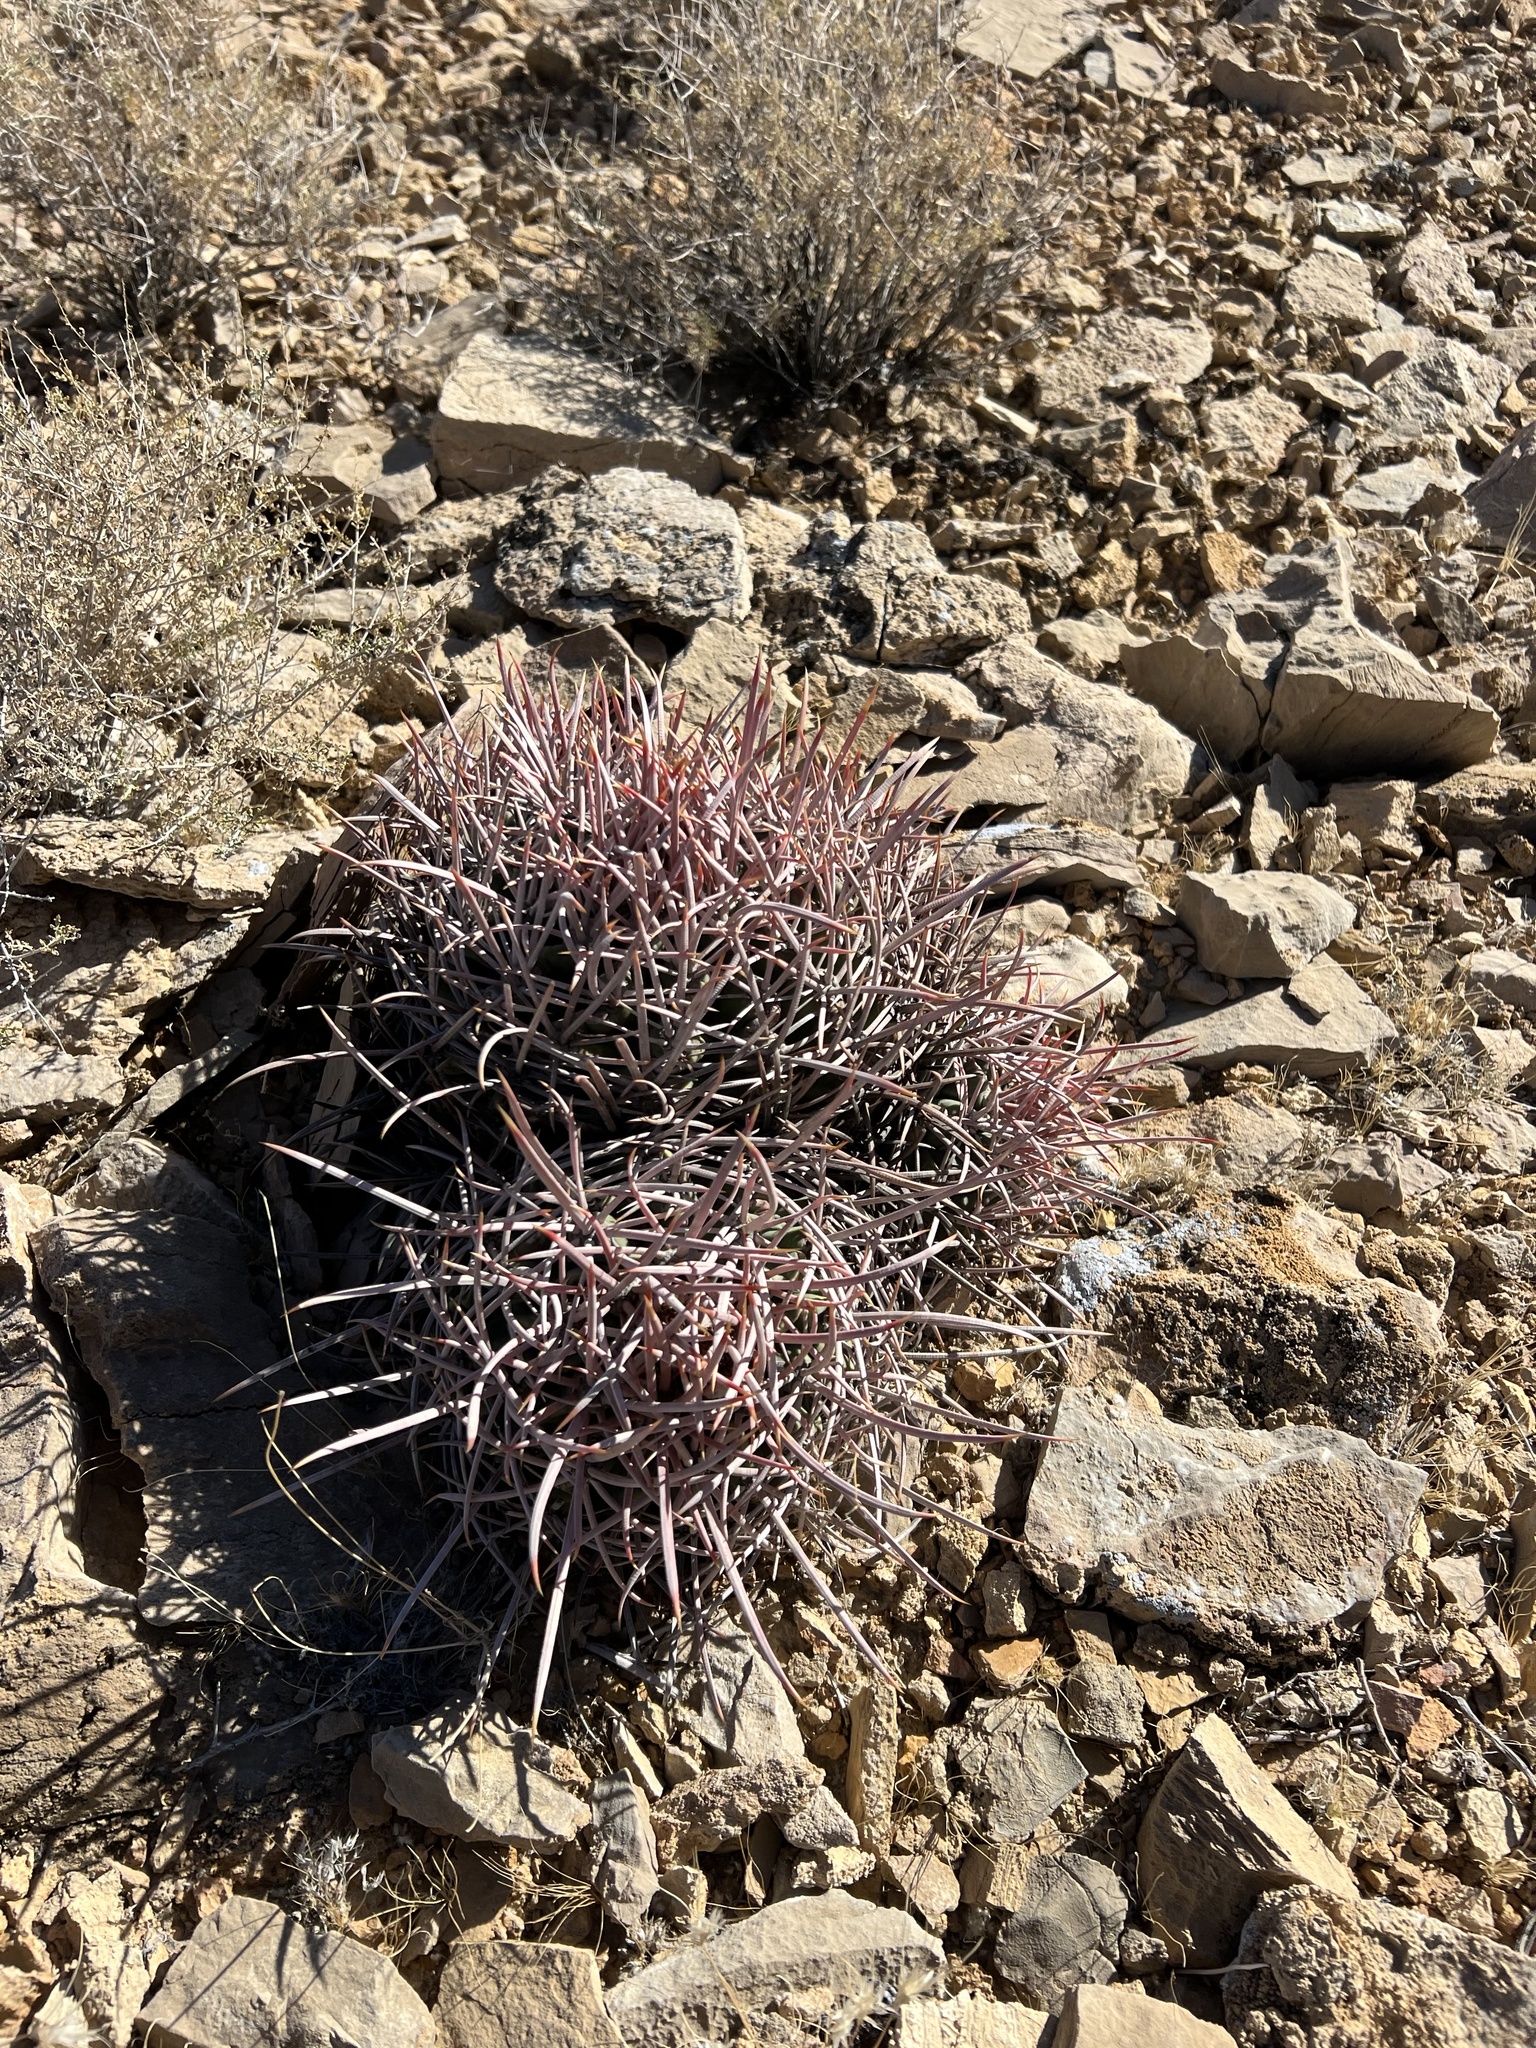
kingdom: Plantae
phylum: Tracheophyta
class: Magnoliopsida
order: Caryophyllales
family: Cactaceae
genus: Echinocactus
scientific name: Echinocactus polycephalus
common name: Cottontop cactus
